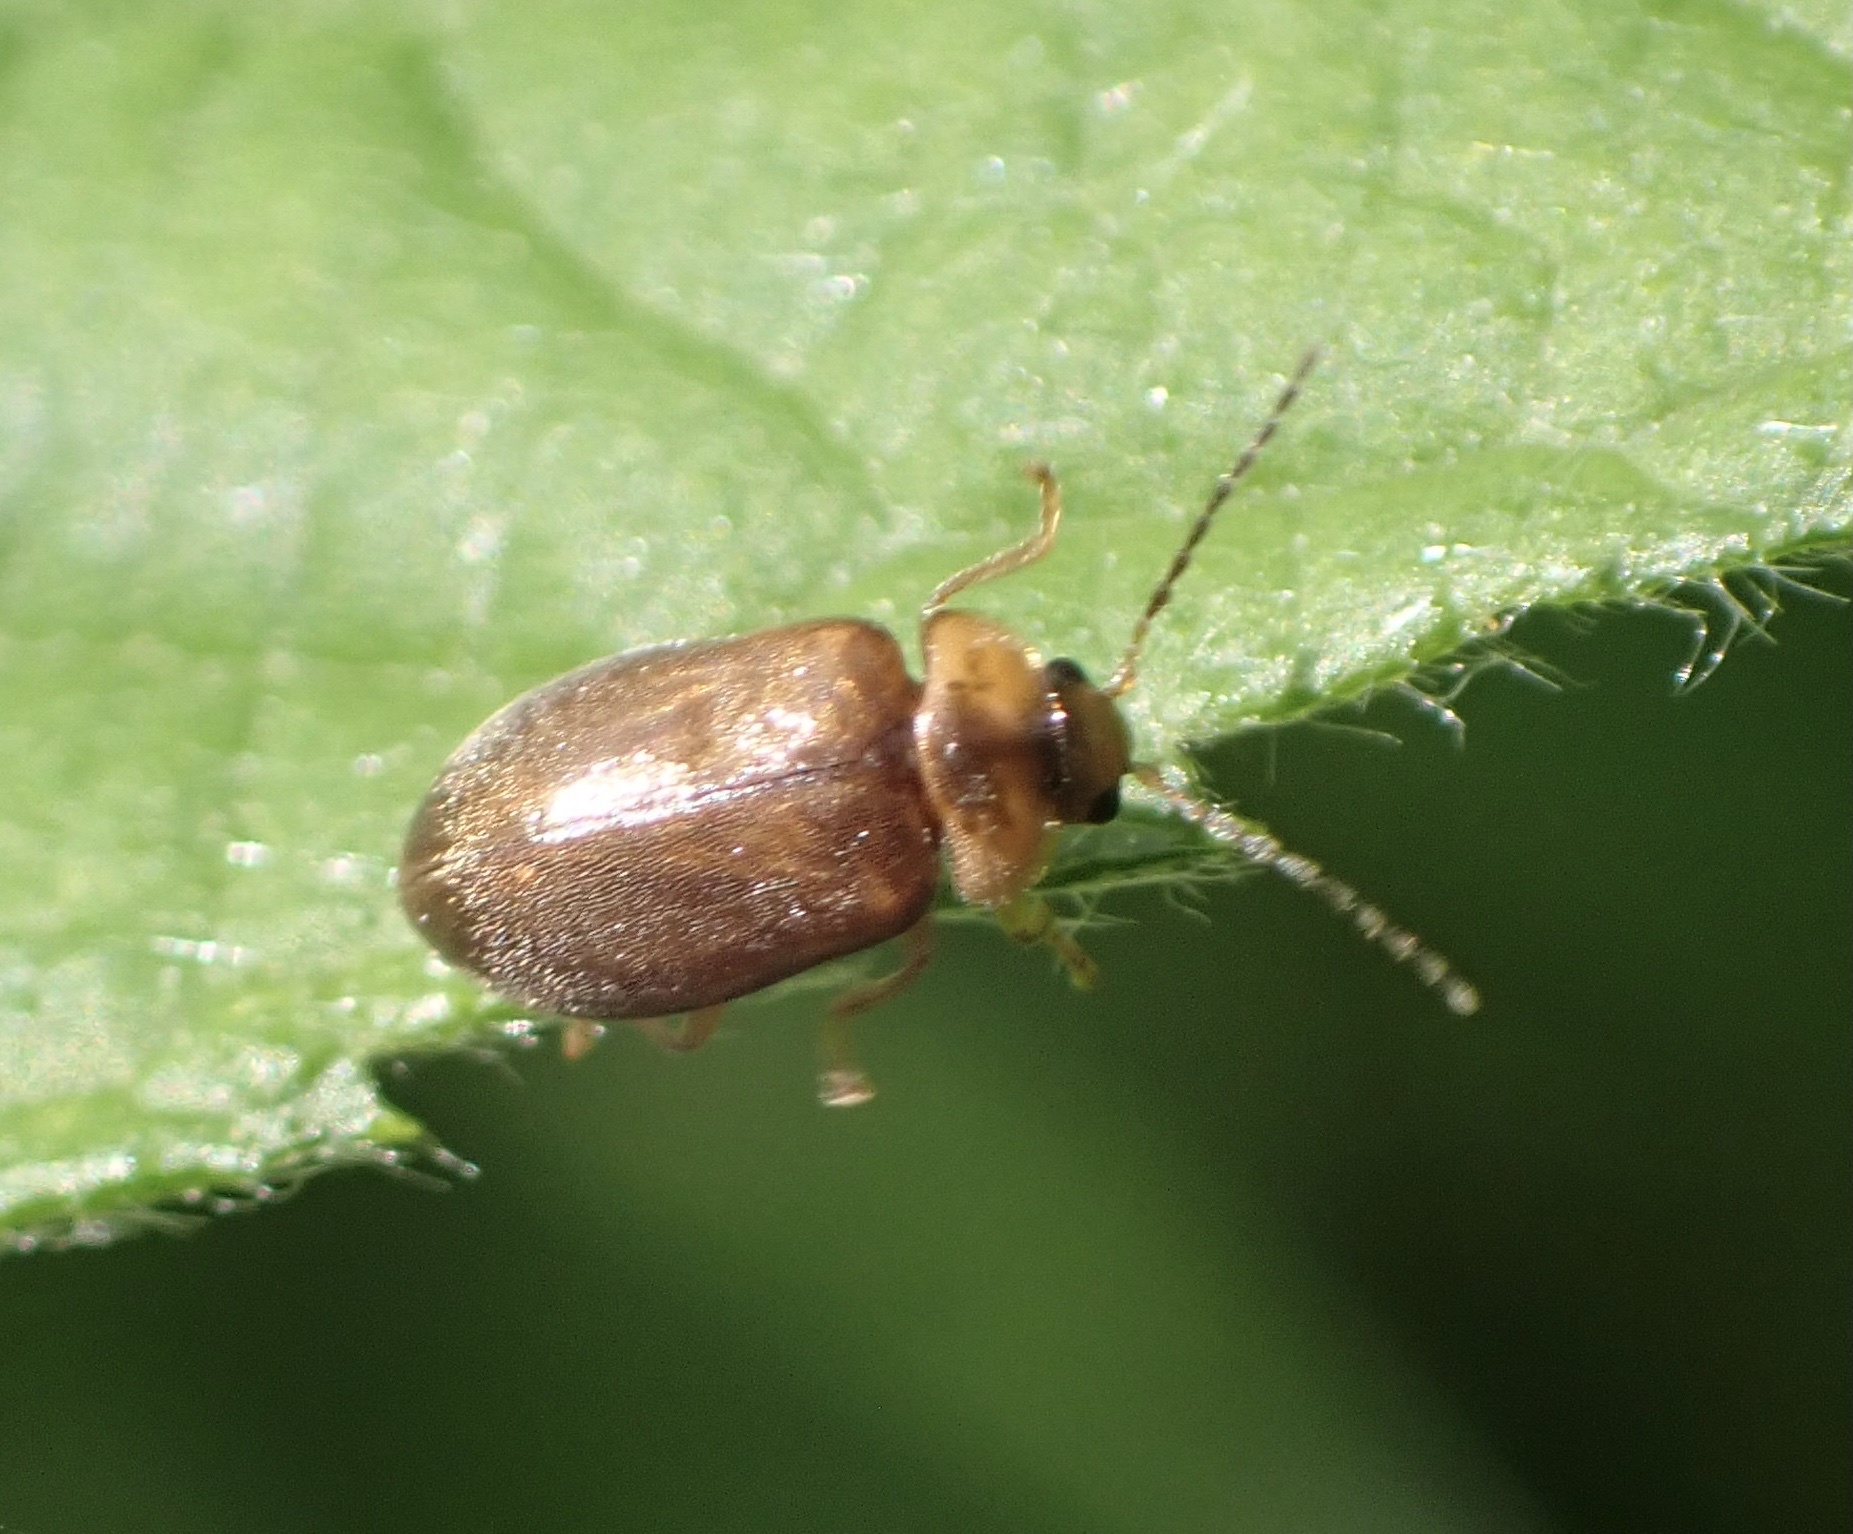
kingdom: Animalia
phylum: Arthropoda
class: Insecta
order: Coleoptera
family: Scirtidae
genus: Microcara
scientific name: Microcara testacea
